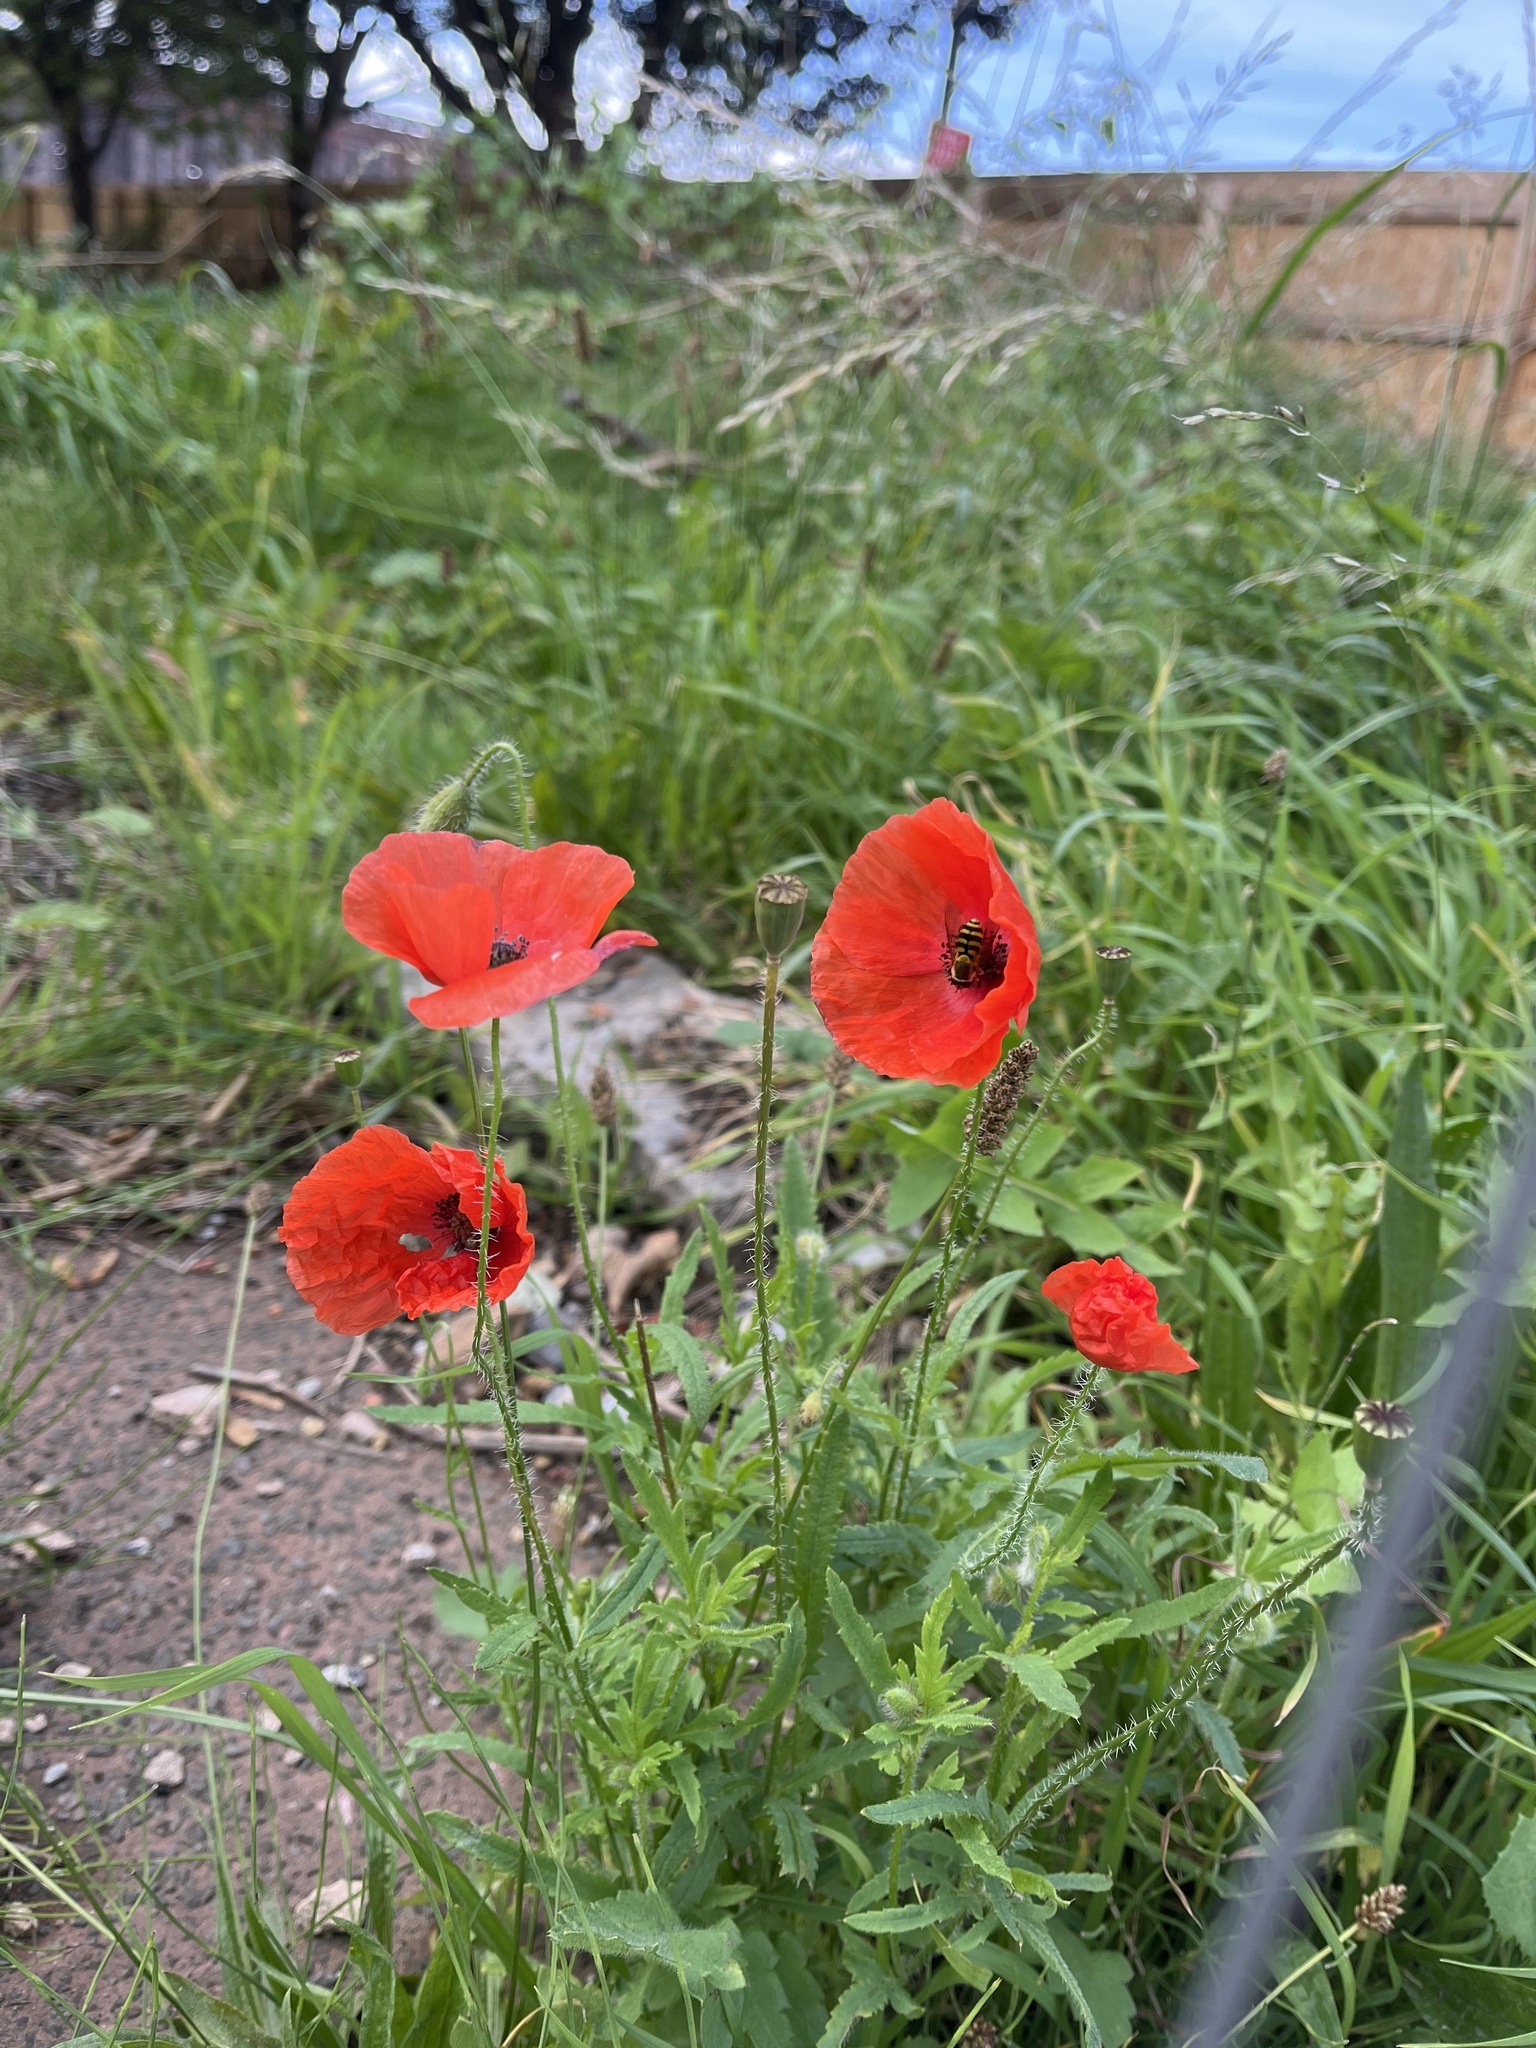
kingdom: Plantae
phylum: Tracheophyta
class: Magnoliopsida
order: Ranunculales
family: Papaveraceae
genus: Papaver
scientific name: Papaver rhoeas
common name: Corn poppy
